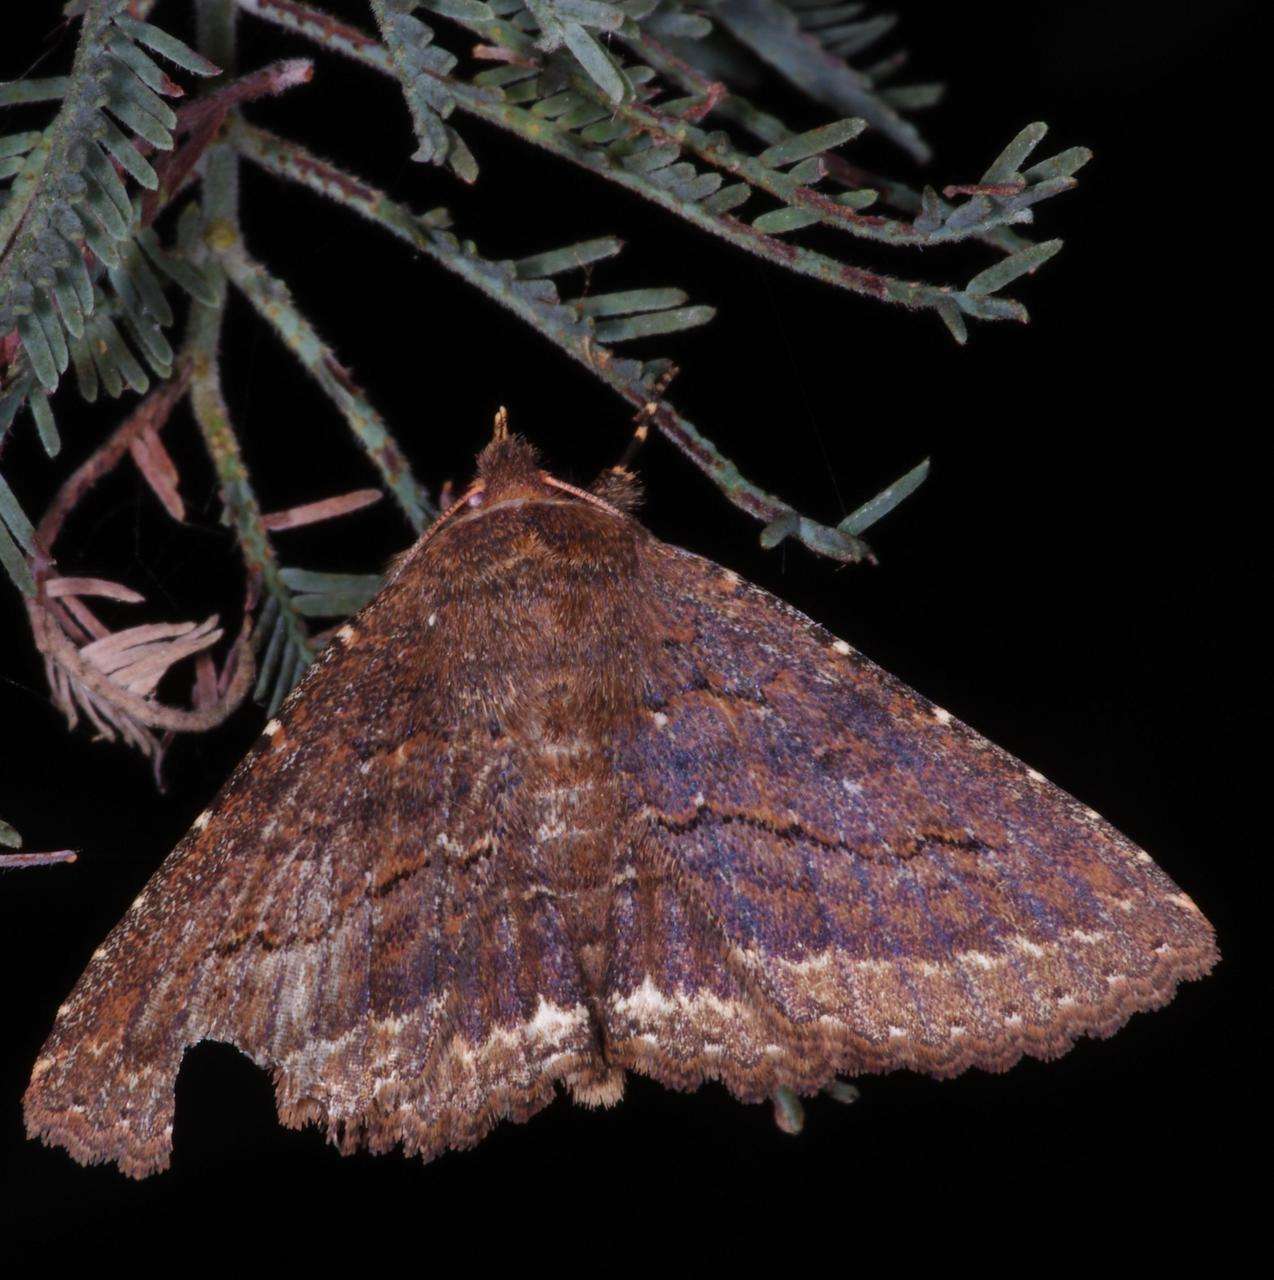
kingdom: Animalia
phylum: Arthropoda
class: Insecta
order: Lepidoptera
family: Erebidae
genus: Praxis
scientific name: Praxis porphyretica
